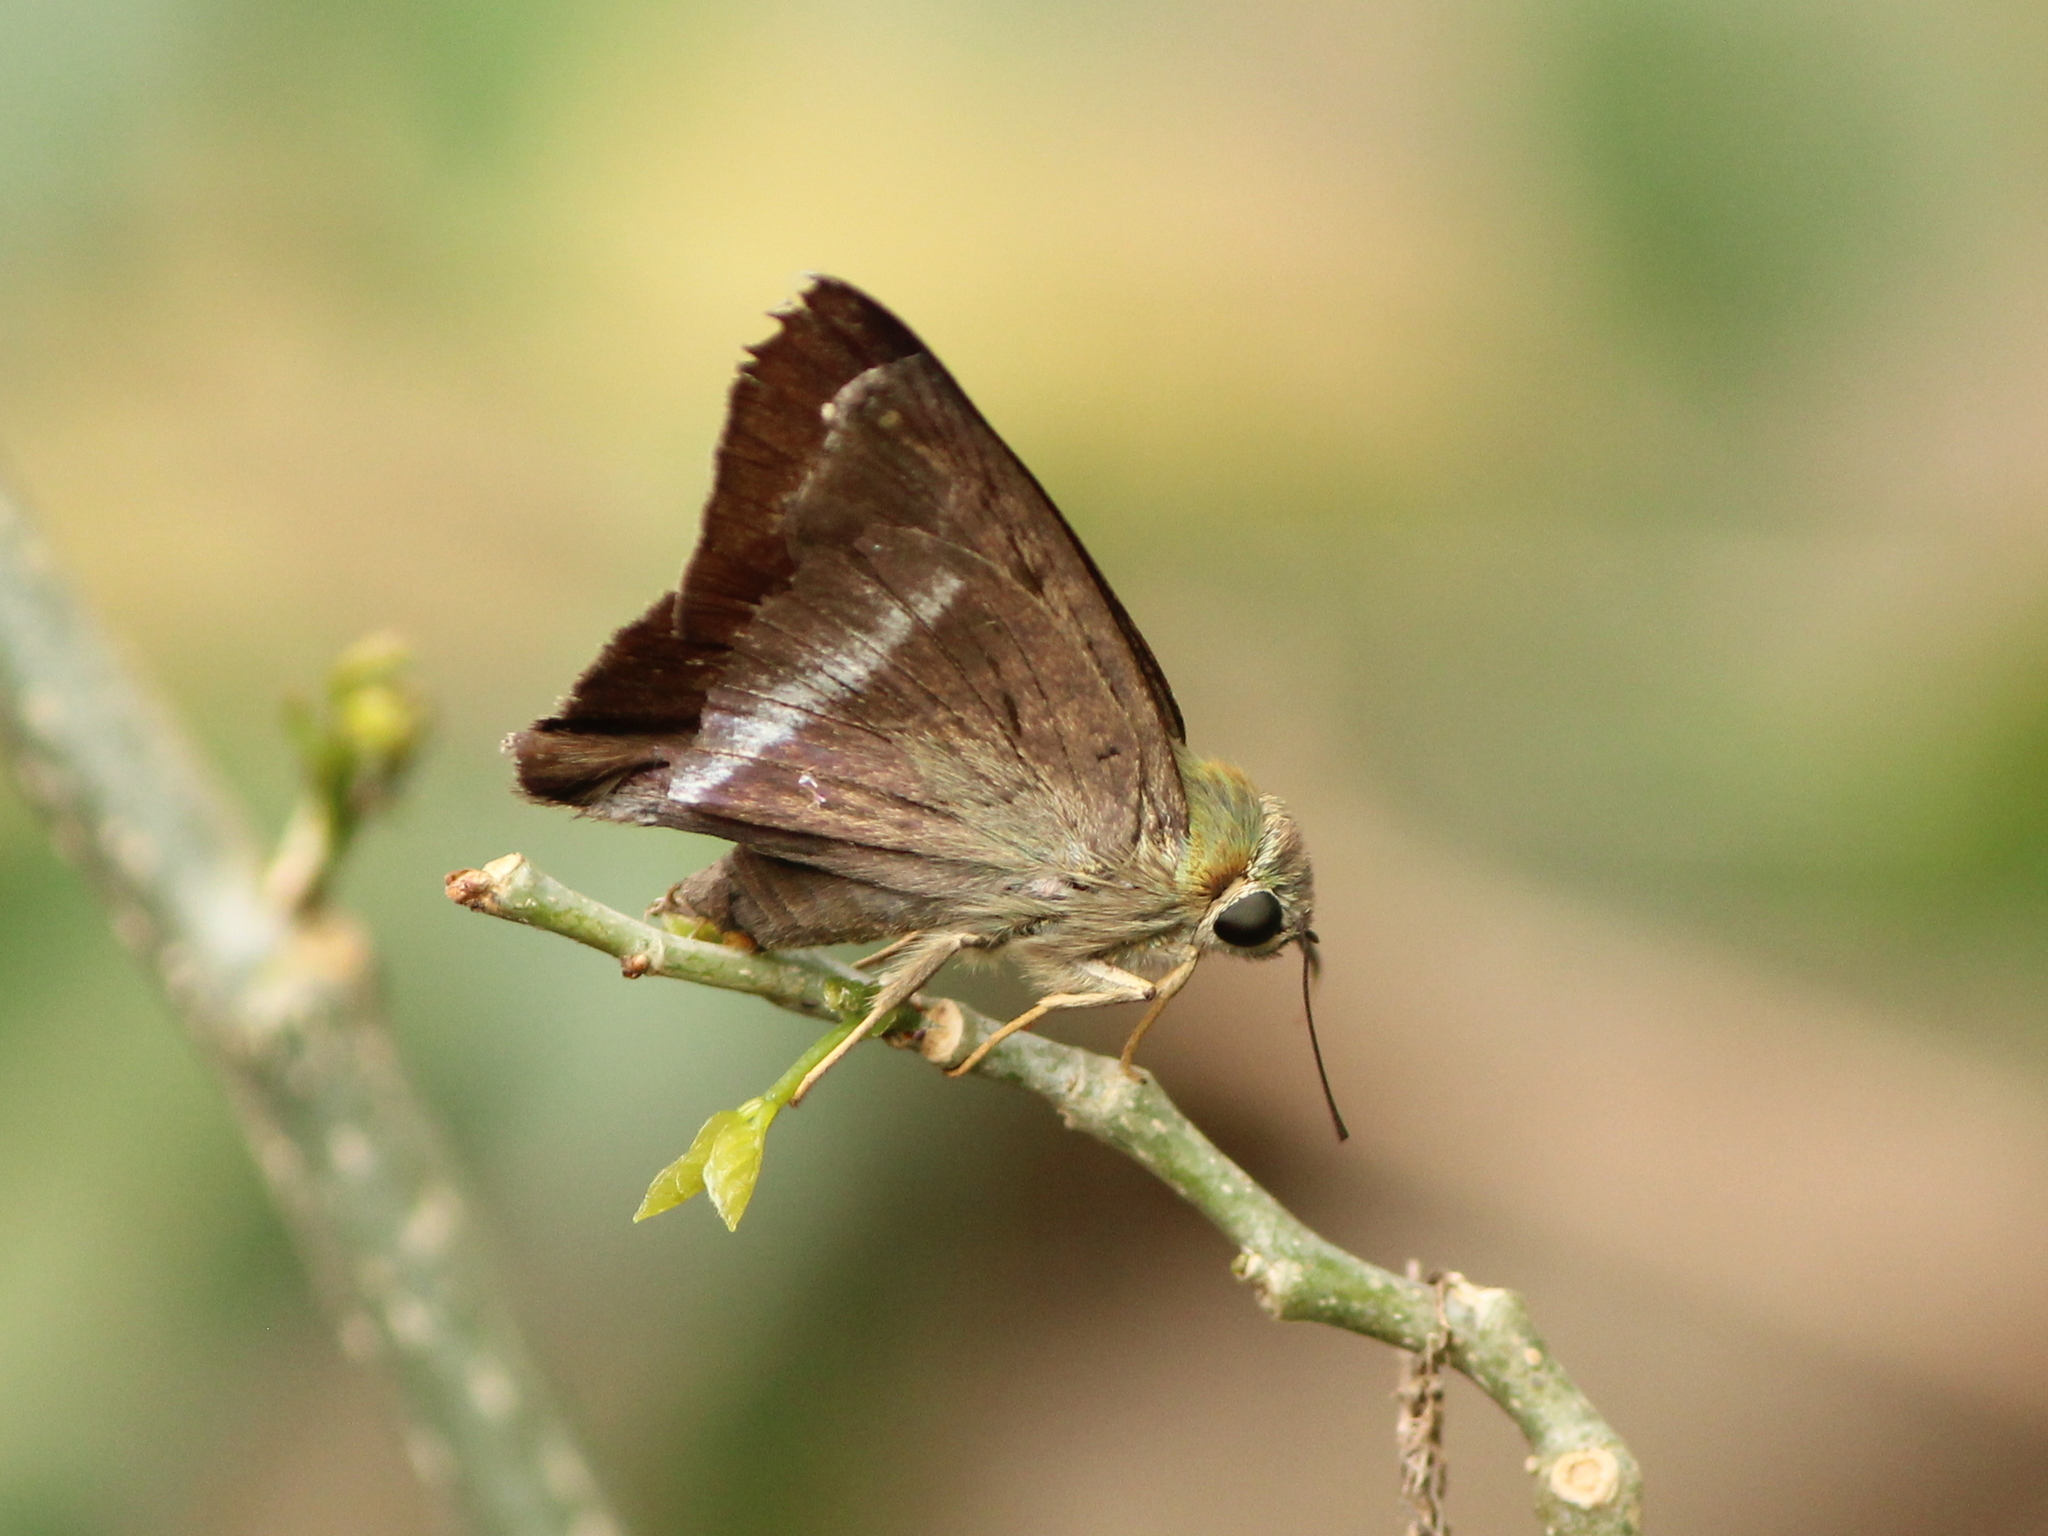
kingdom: Animalia
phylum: Arthropoda
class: Insecta
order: Lepidoptera
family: Hesperiidae
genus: Hasora
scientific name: Hasora chromus
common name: Common banded awl
